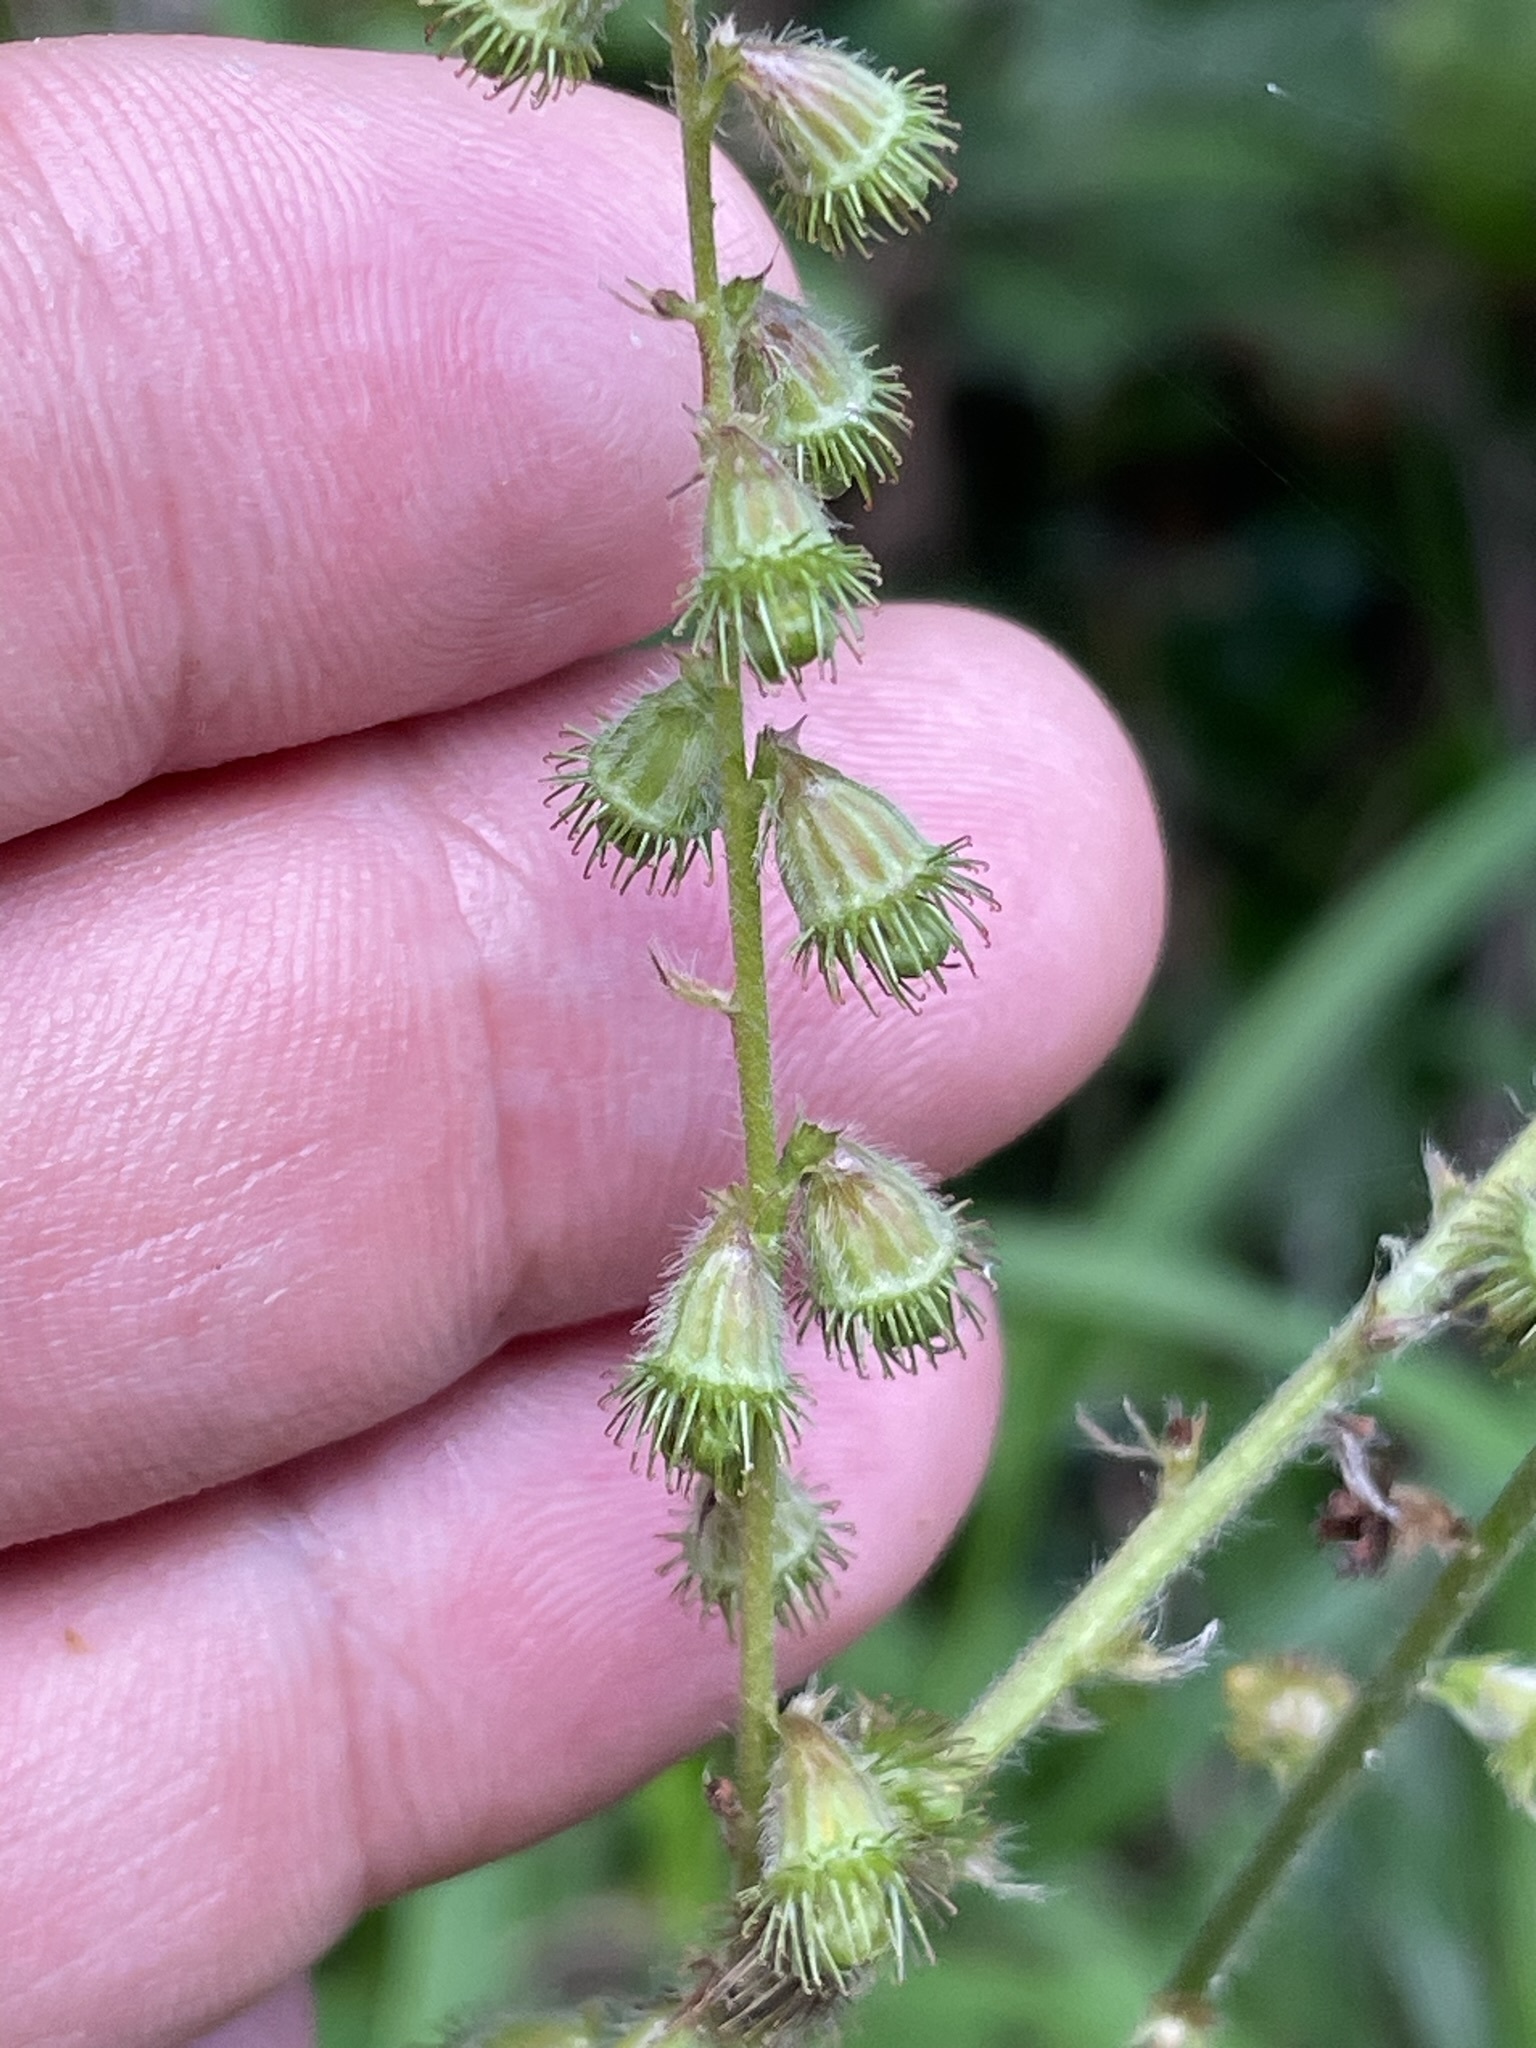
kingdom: Plantae
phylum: Tracheophyta
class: Magnoliopsida
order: Rosales
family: Rosaceae
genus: Agrimonia
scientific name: Agrimonia eupatoria
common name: Agrimony
